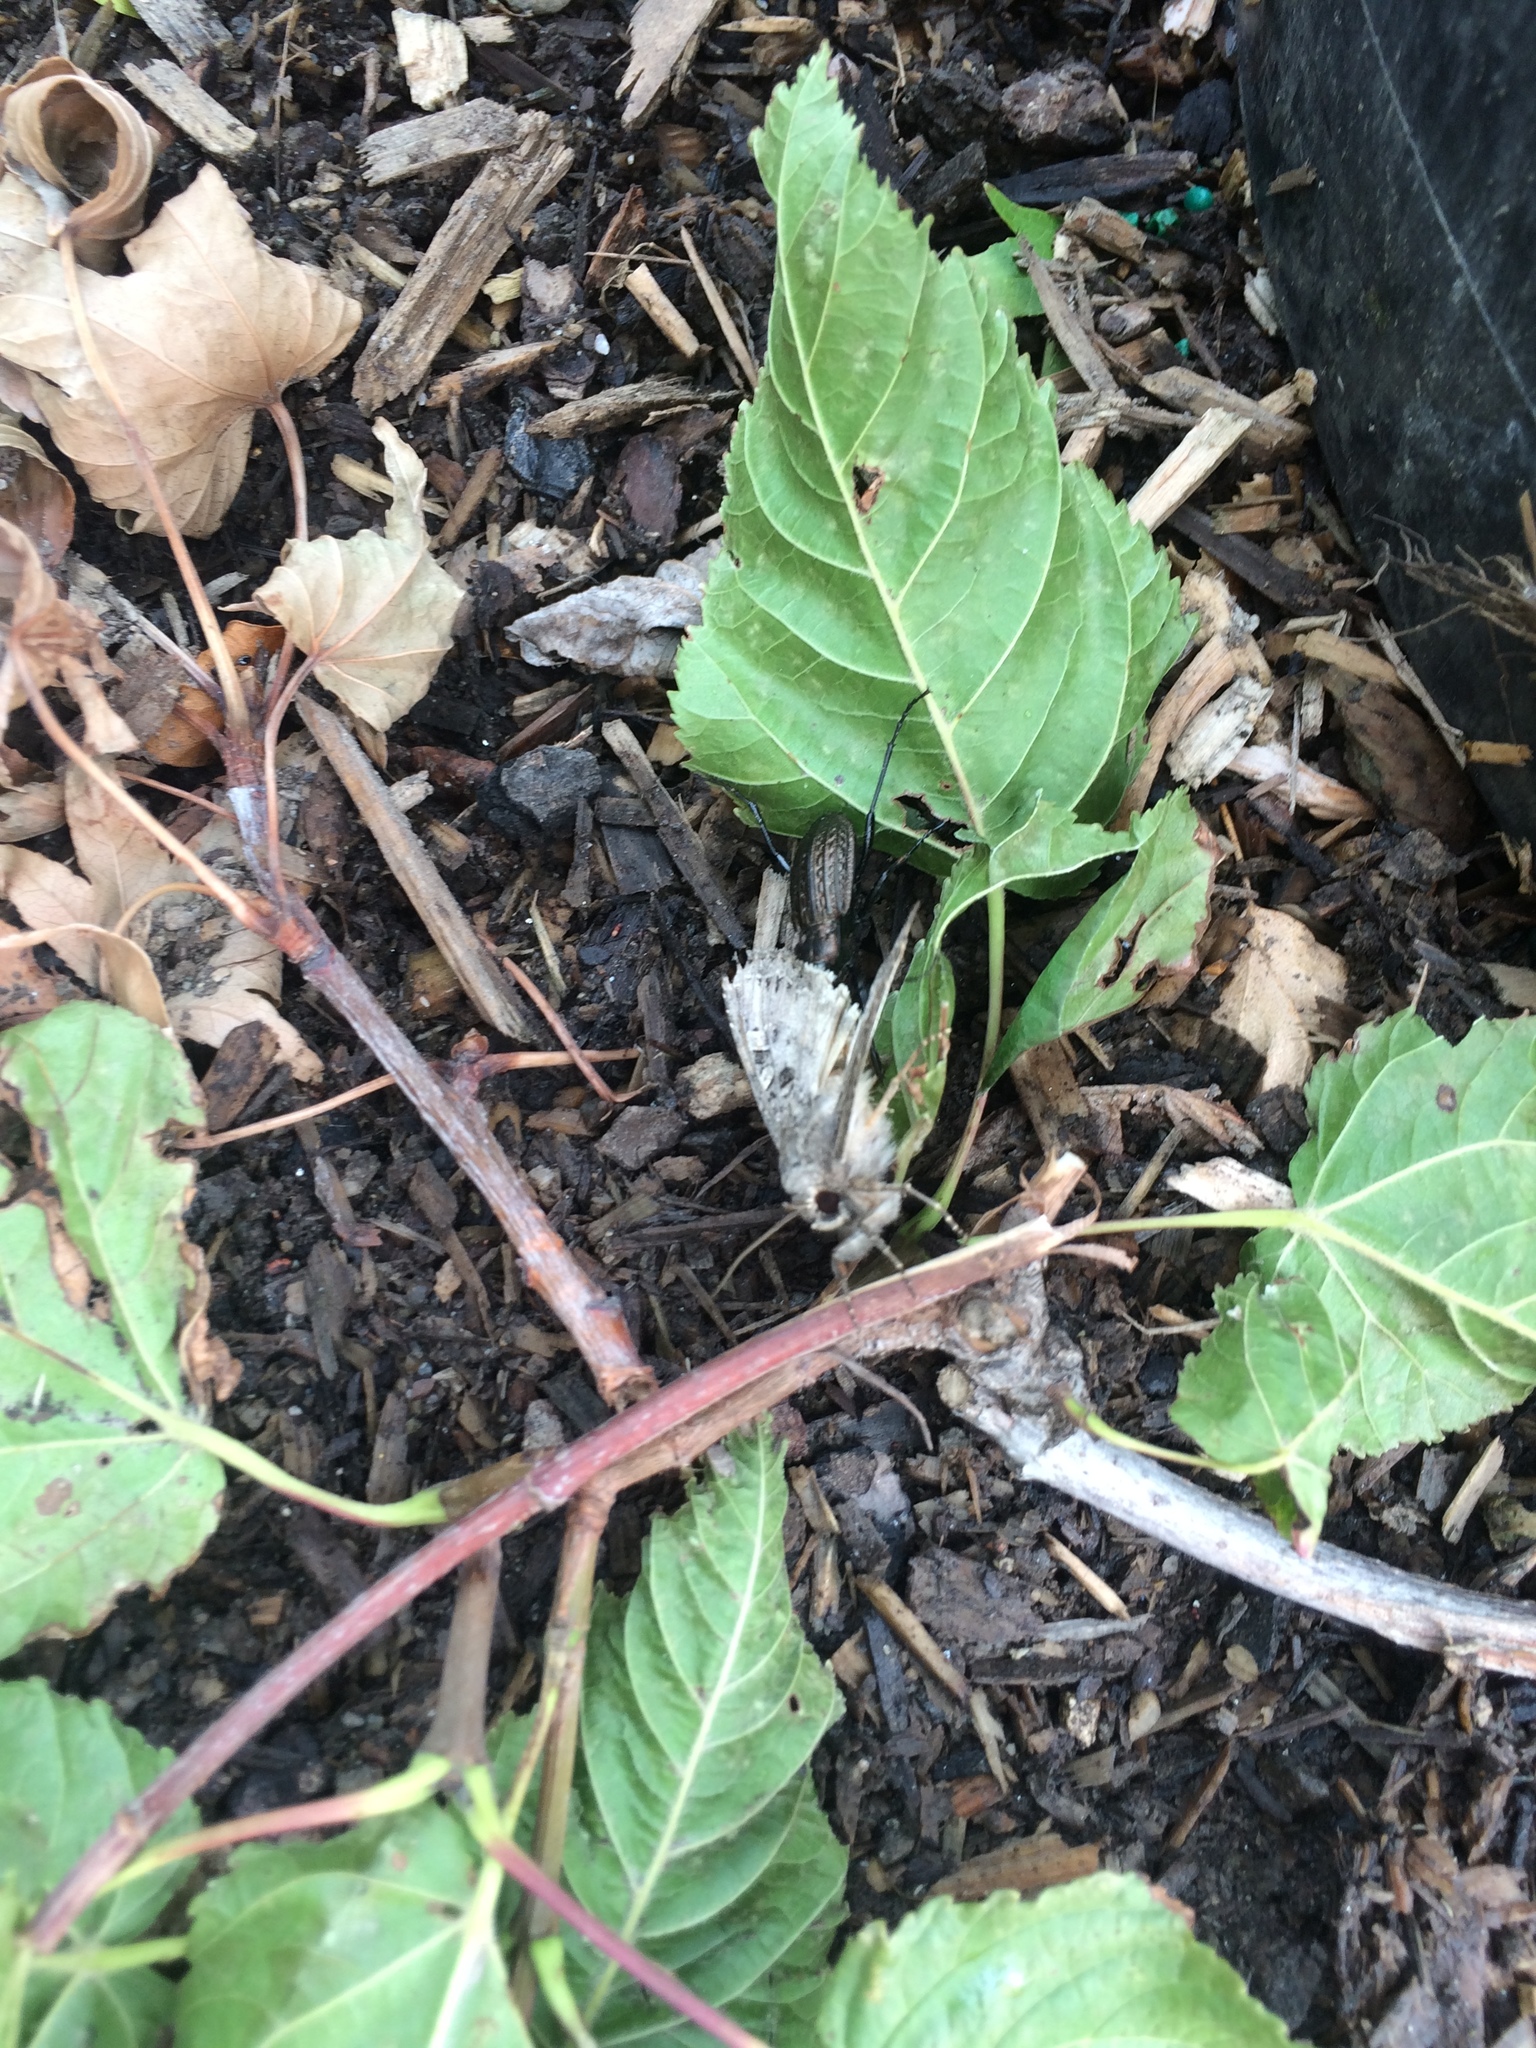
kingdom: Animalia
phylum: Arthropoda
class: Insecta
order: Coleoptera
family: Carabidae
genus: Carabus
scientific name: Carabus granulatus
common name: Granulate ground beetle
